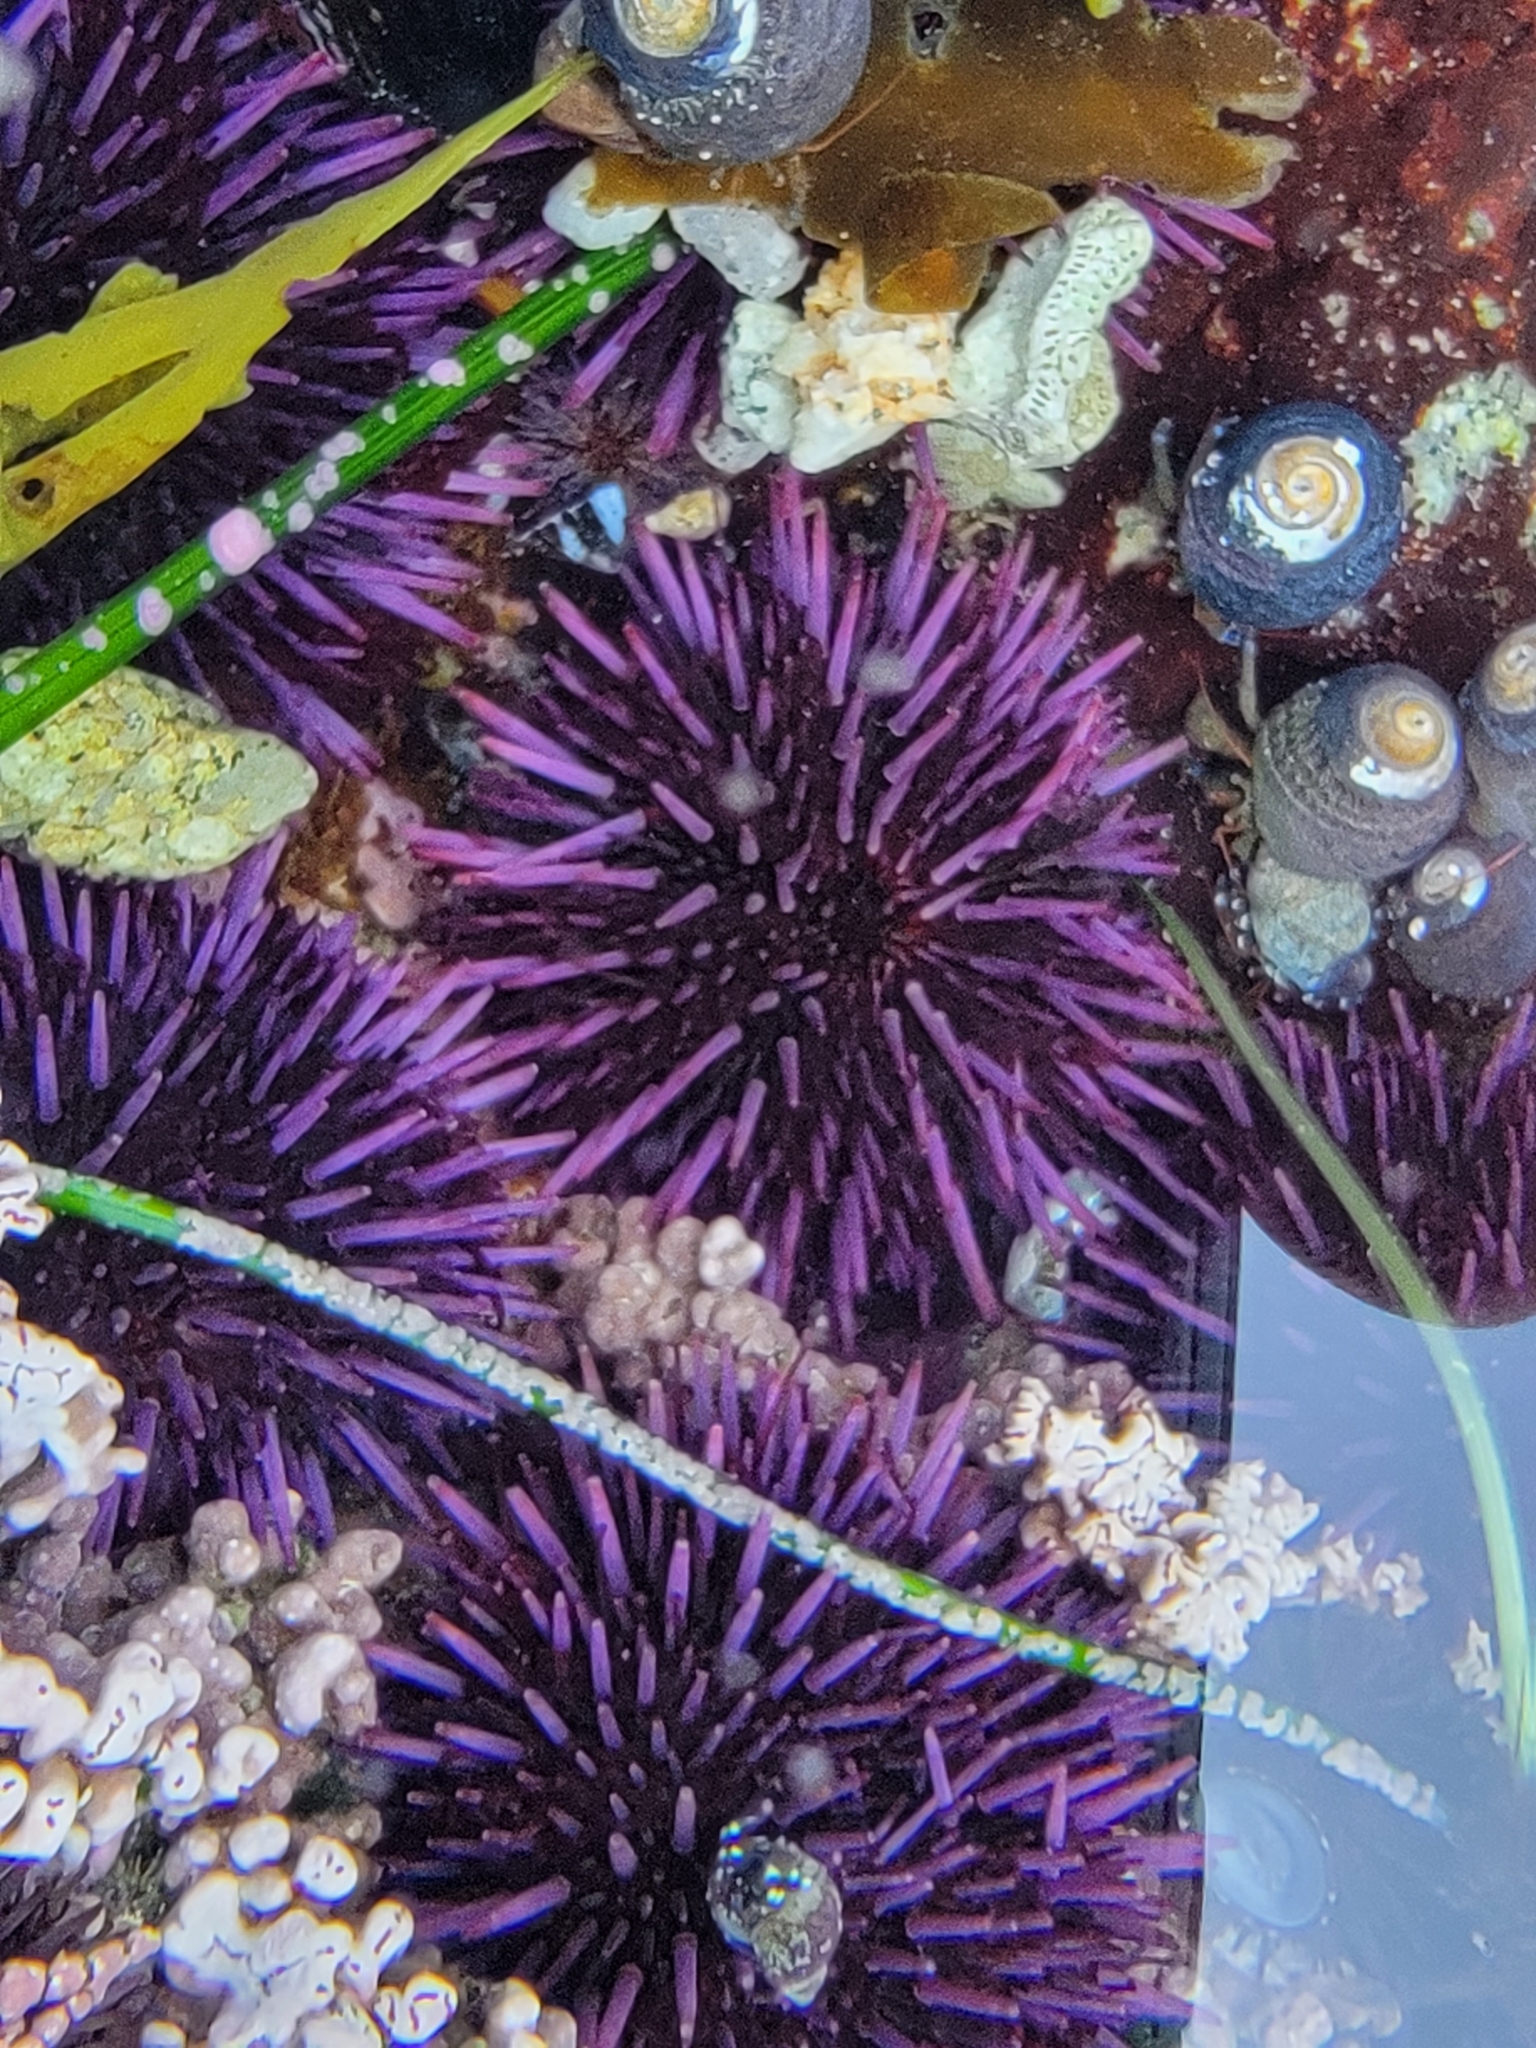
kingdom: Animalia
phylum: Echinodermata
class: Echinoidea
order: Camarodonta
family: Strongylocentrotidae
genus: Strongylocentrotus
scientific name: Strongylocentrotus purpuratus
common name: Purple sea urchin
